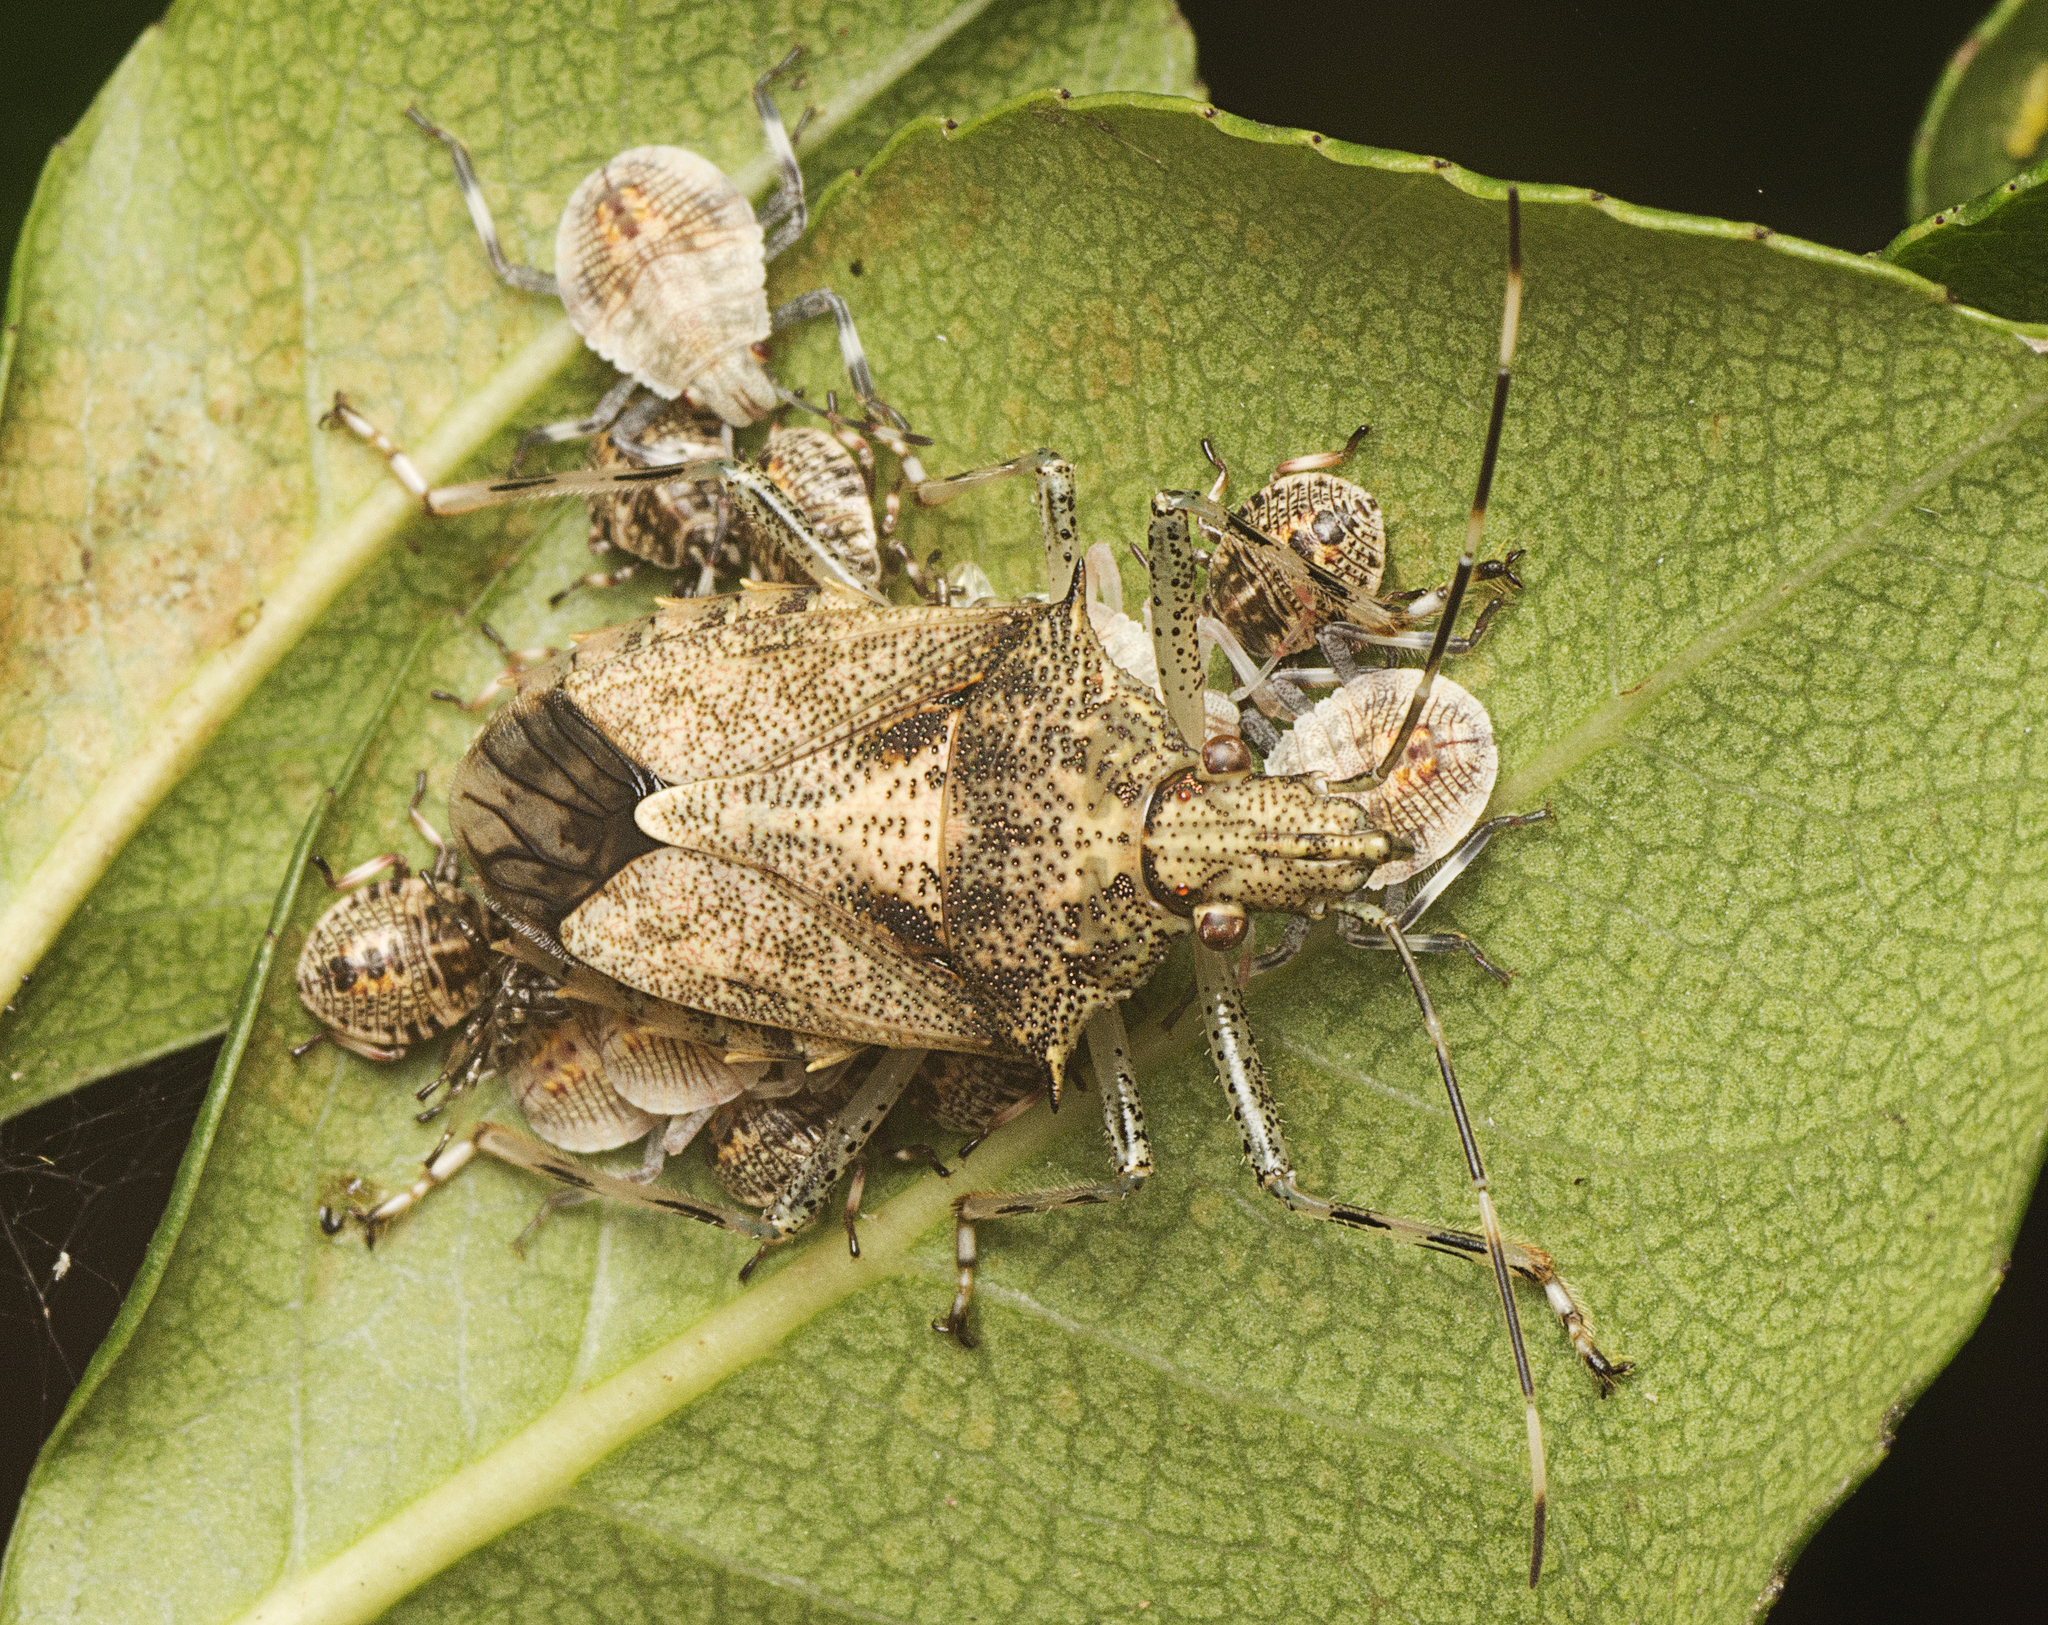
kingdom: Animalia
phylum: Arthropoda
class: Insecta
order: Hemiptera
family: Pentatomidae
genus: Bromocoris
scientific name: Bromocoris
